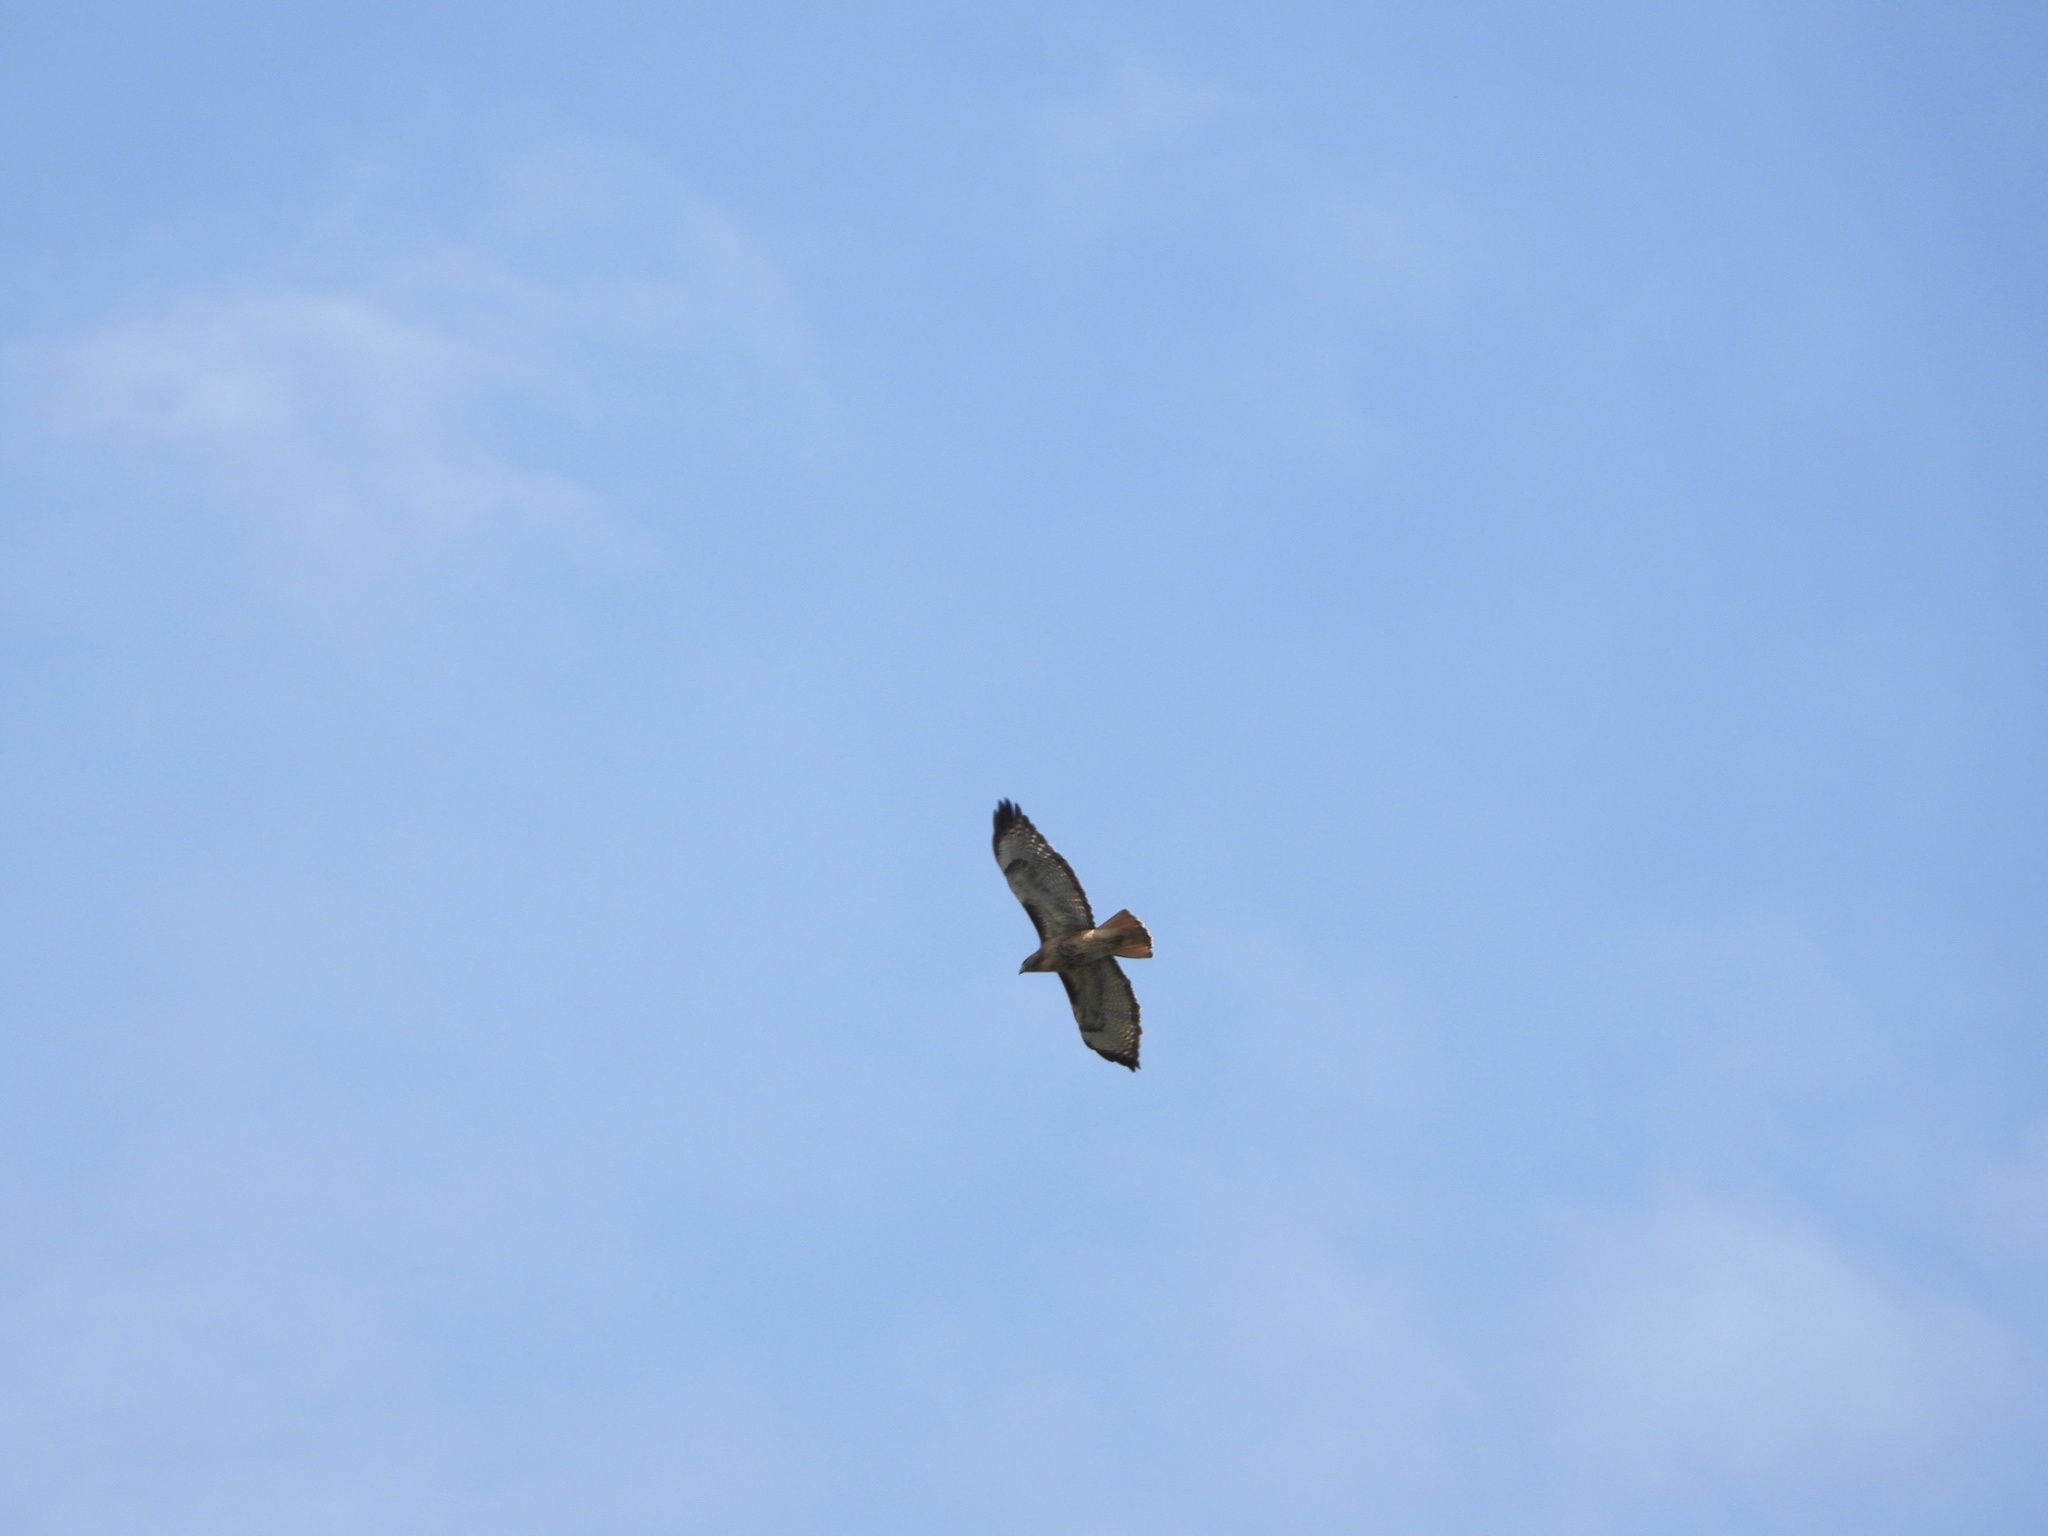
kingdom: Animalia
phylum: Chordata
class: Aves
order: Accipitriformes
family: Accipitridae
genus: Buteo
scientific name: Buteo jamaicensis
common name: Red-tailed hawk
